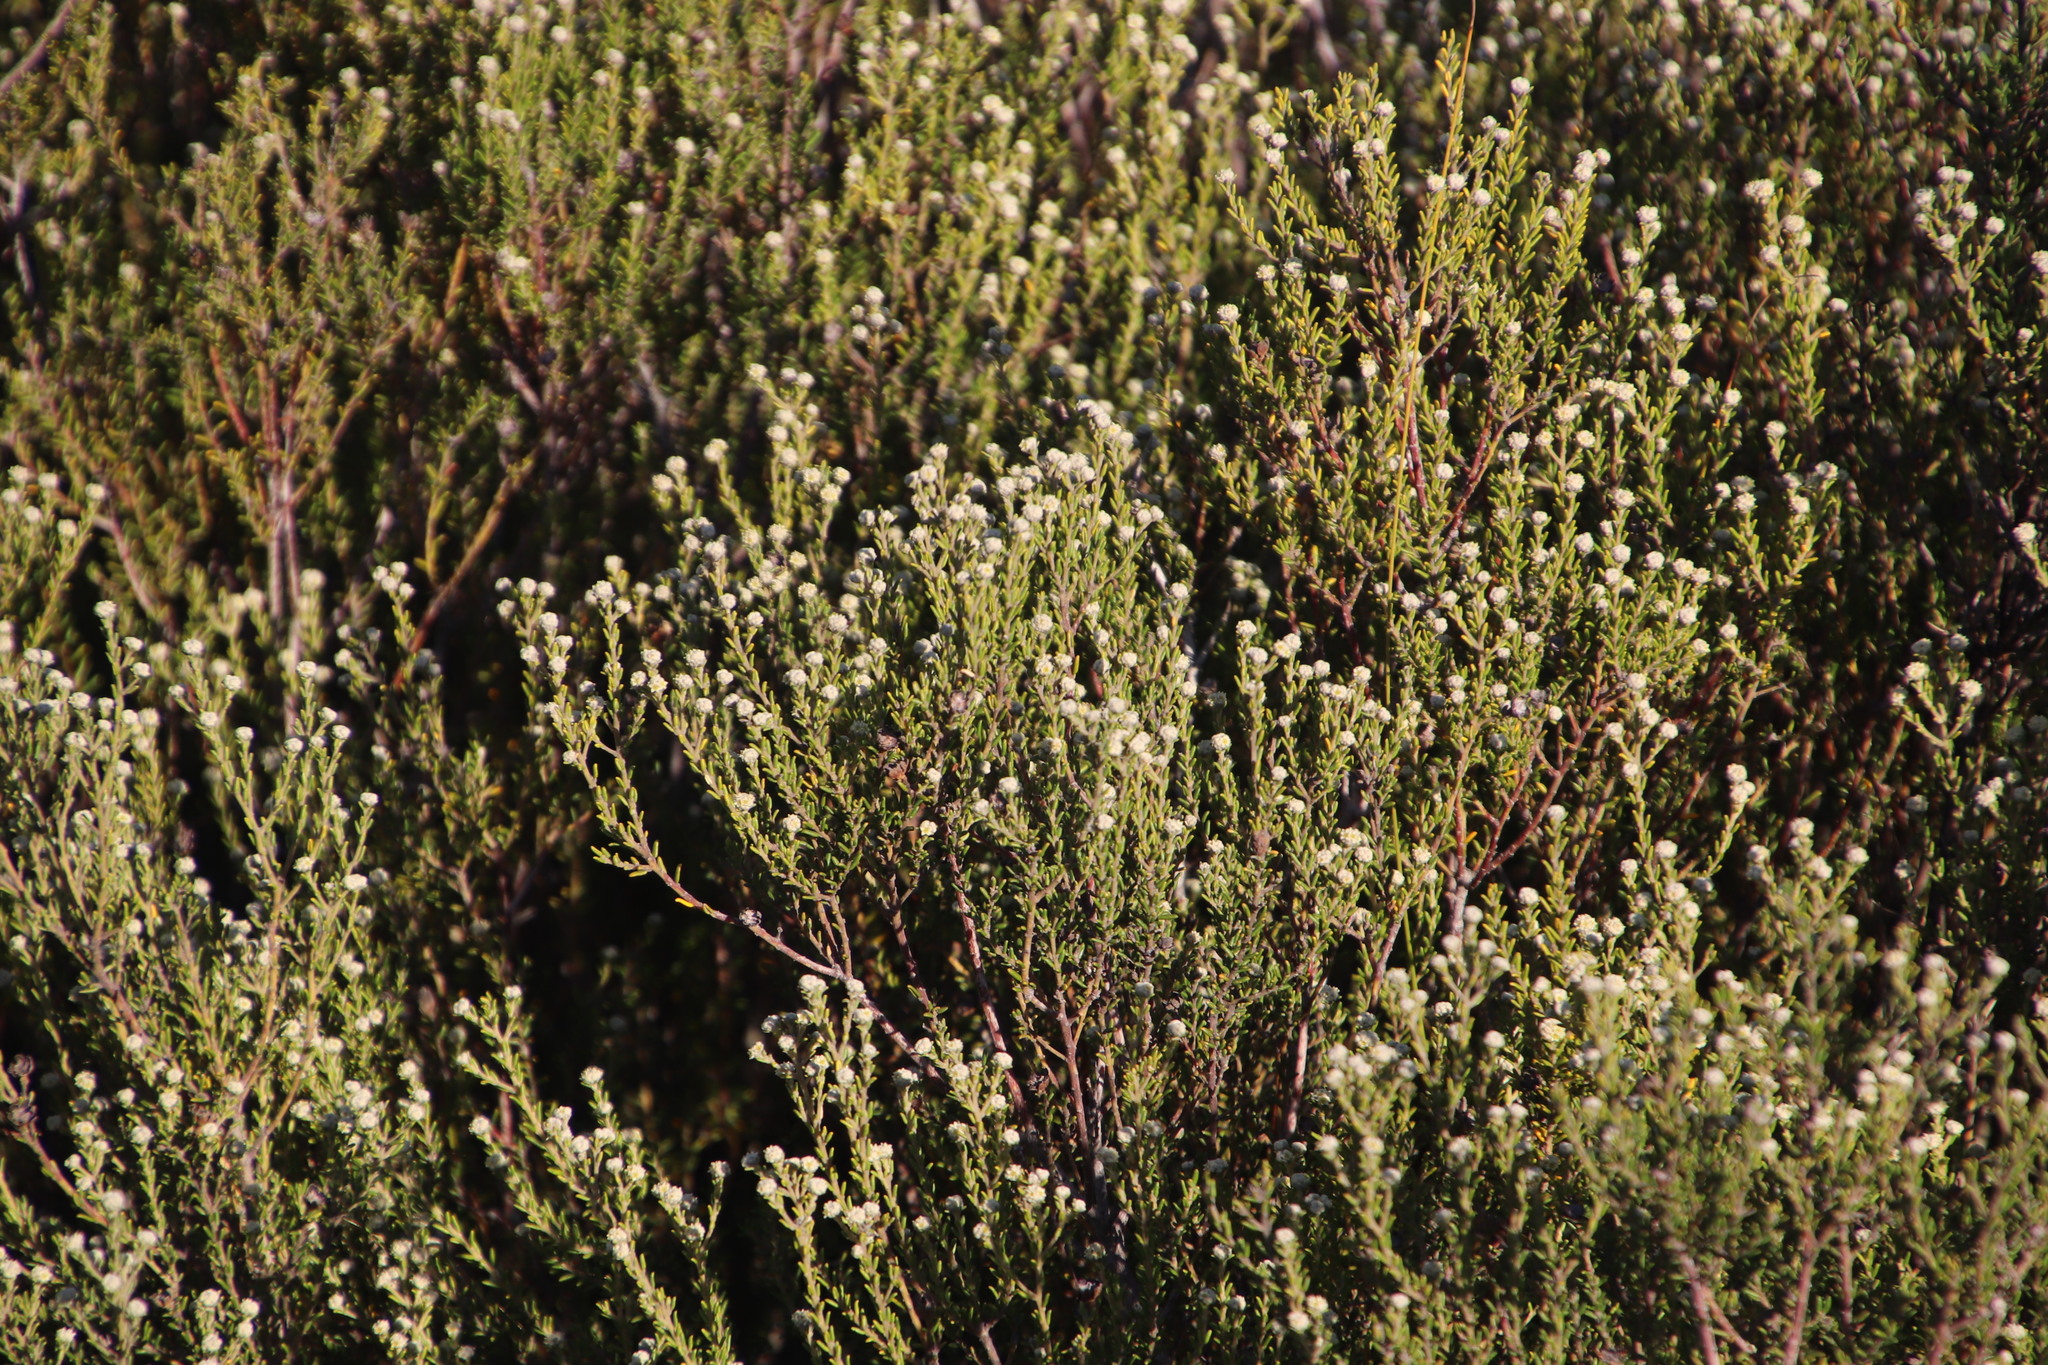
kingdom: Plantae
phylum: Tracheophyta
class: Magnoliopsida
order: Rosales
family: Rhamnaceae
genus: Phylica
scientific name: Phylica cephalantha
